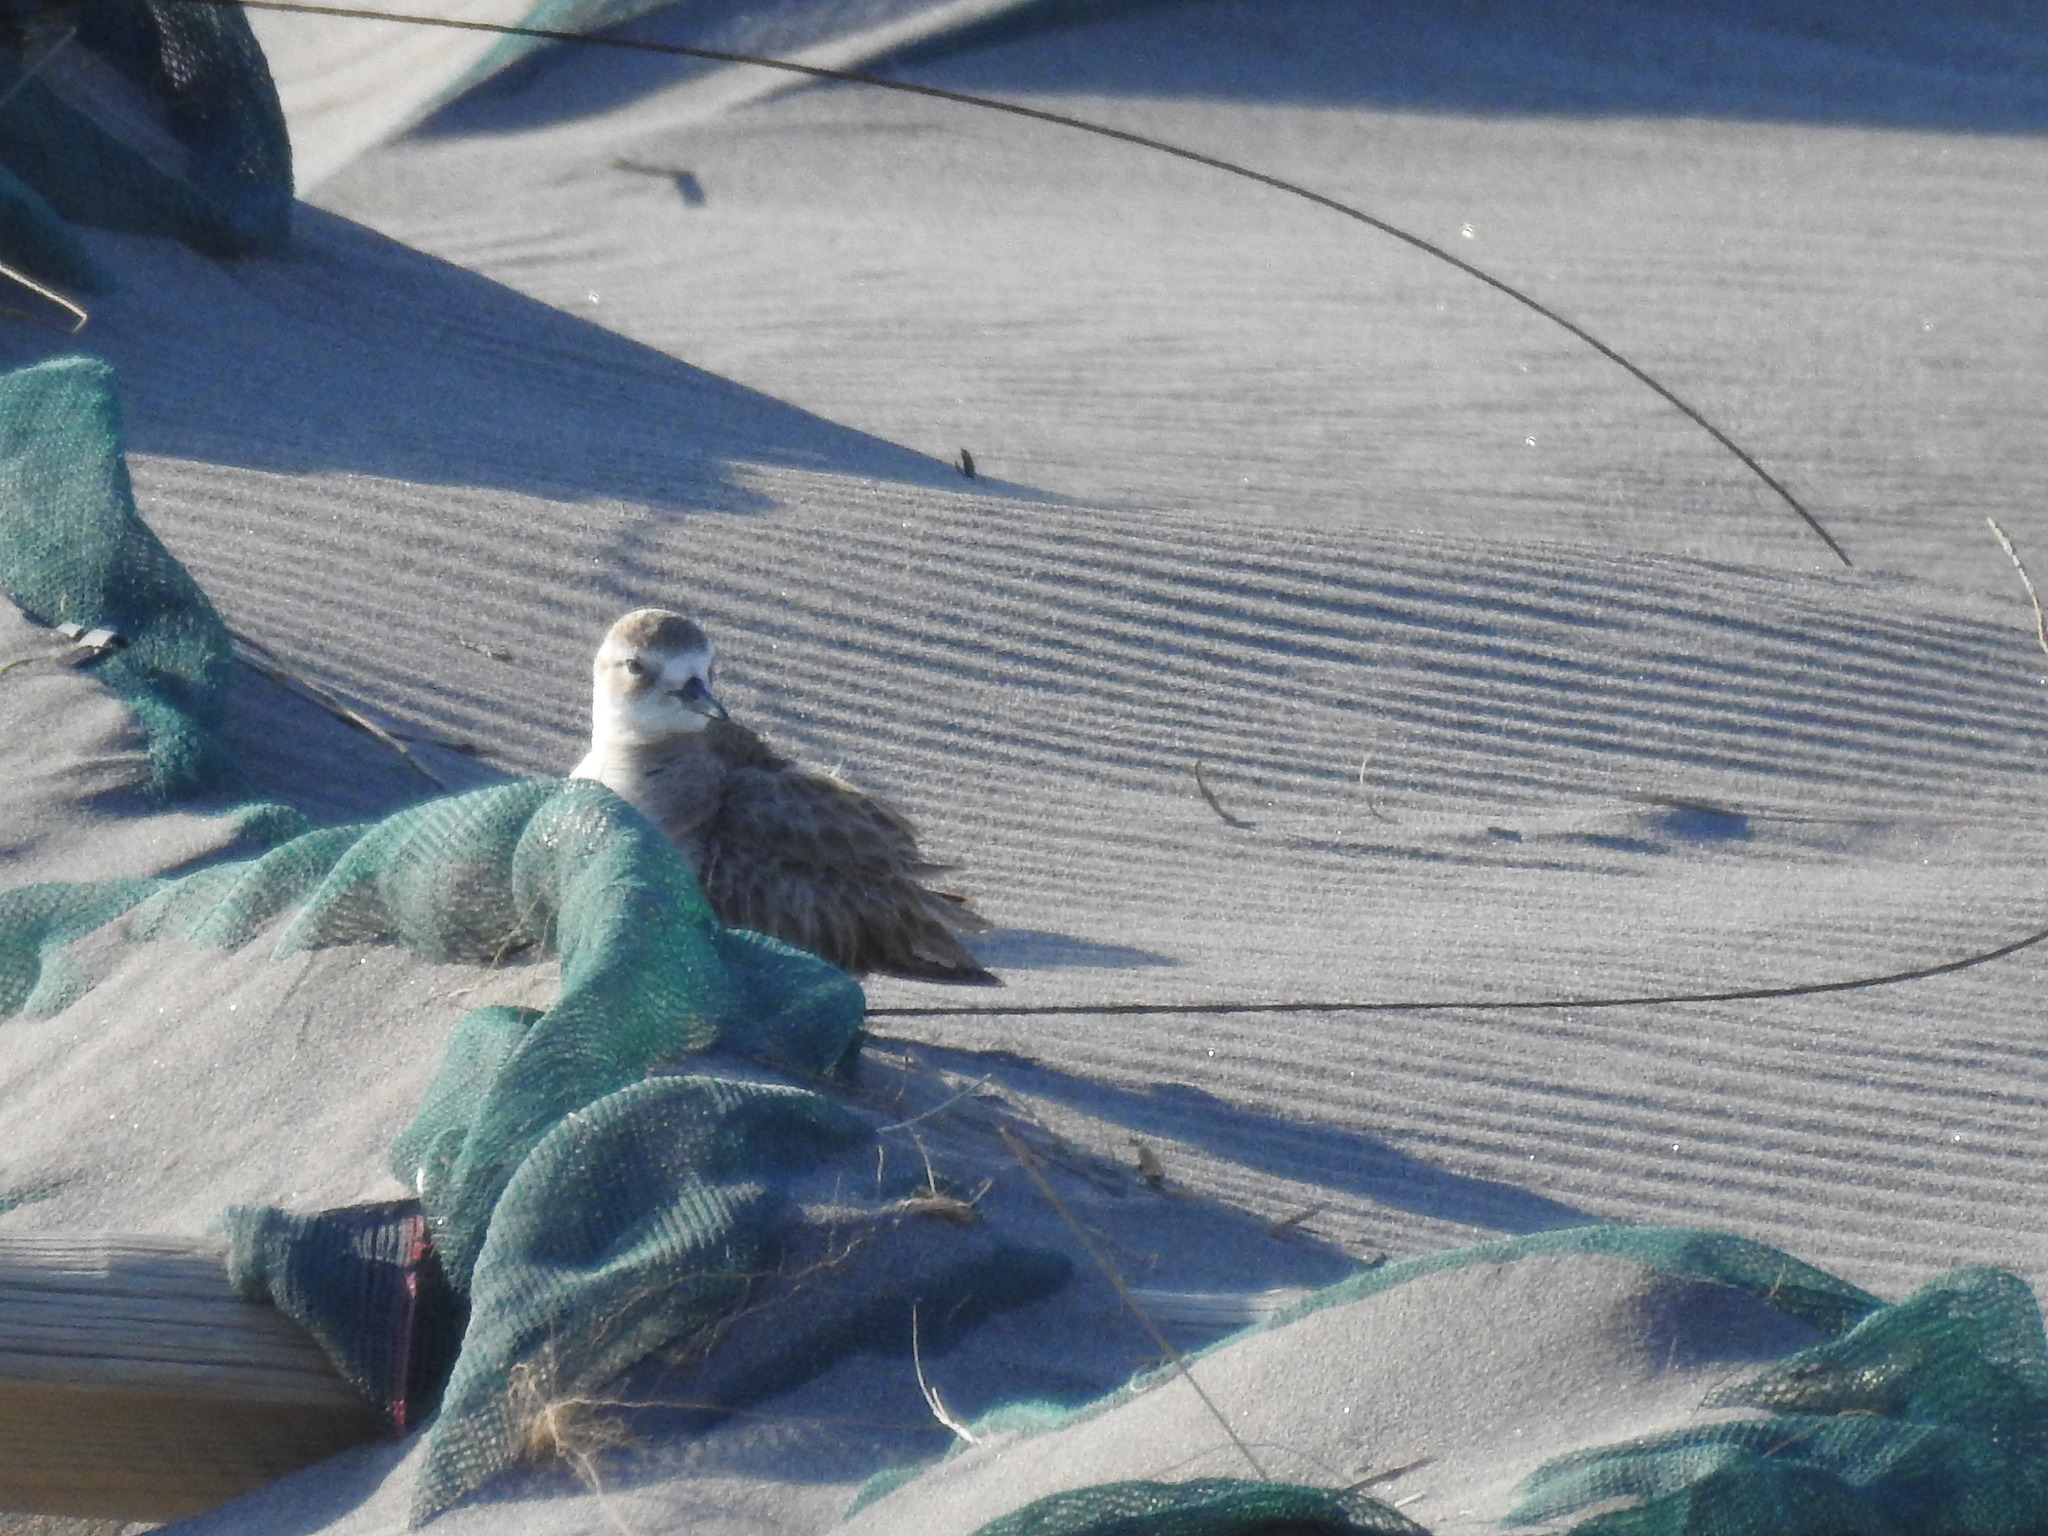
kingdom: Animalia
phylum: Chordata
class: Aves
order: Charadriiformes
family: Charadriidae
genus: Anarhynchus
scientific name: Anarhynchus
